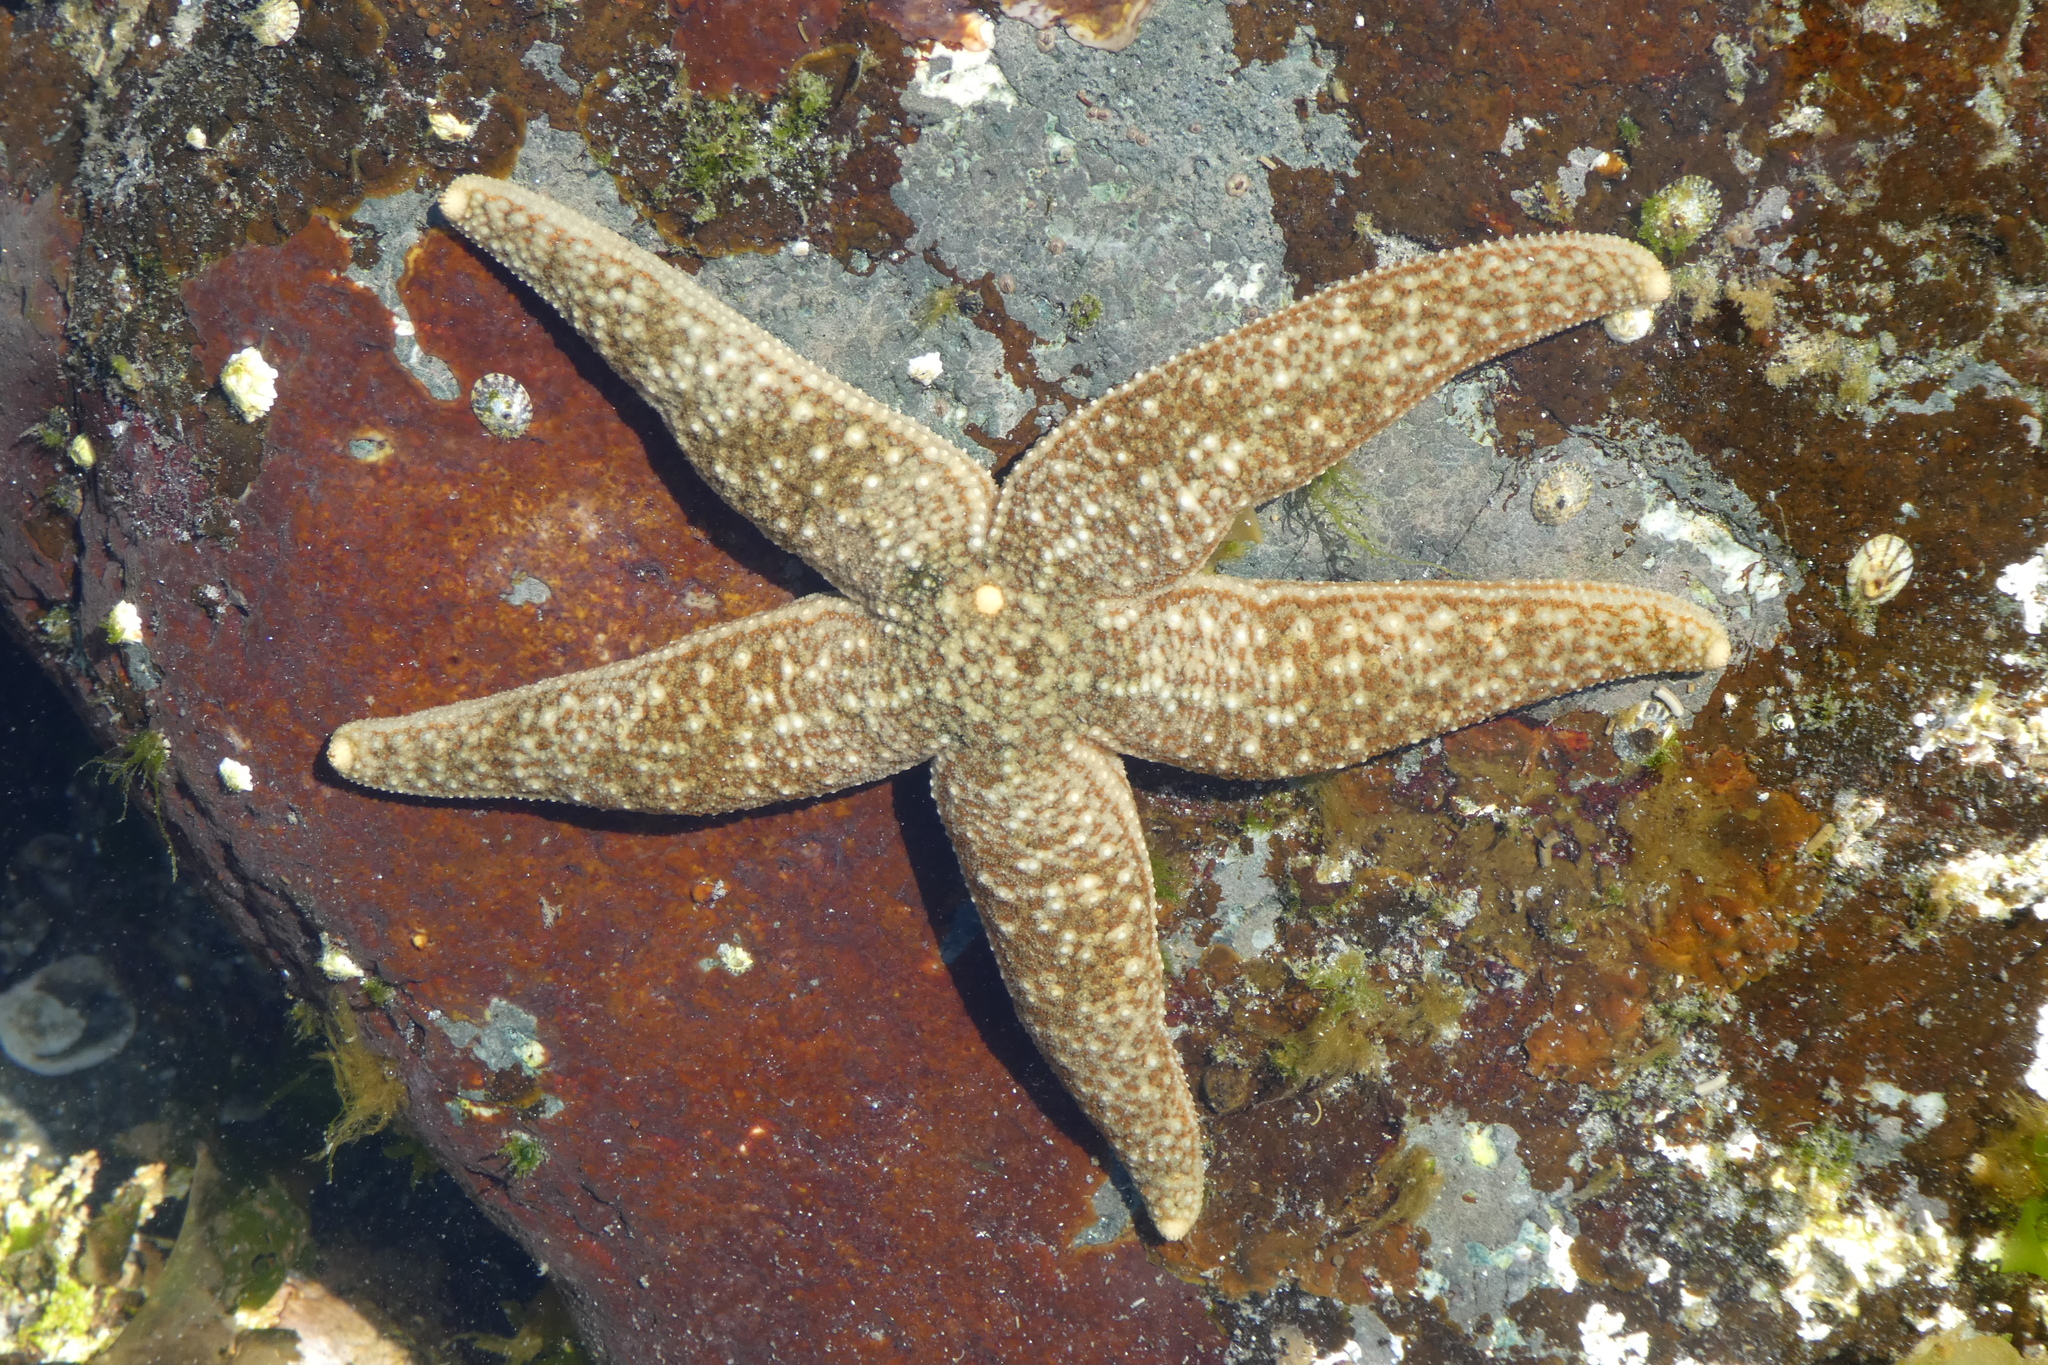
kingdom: Animalia
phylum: Echinodermata
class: Asteroidea
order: Forcipulatida
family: Asteriidae
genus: Evasterias
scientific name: Evasterias troschelii
